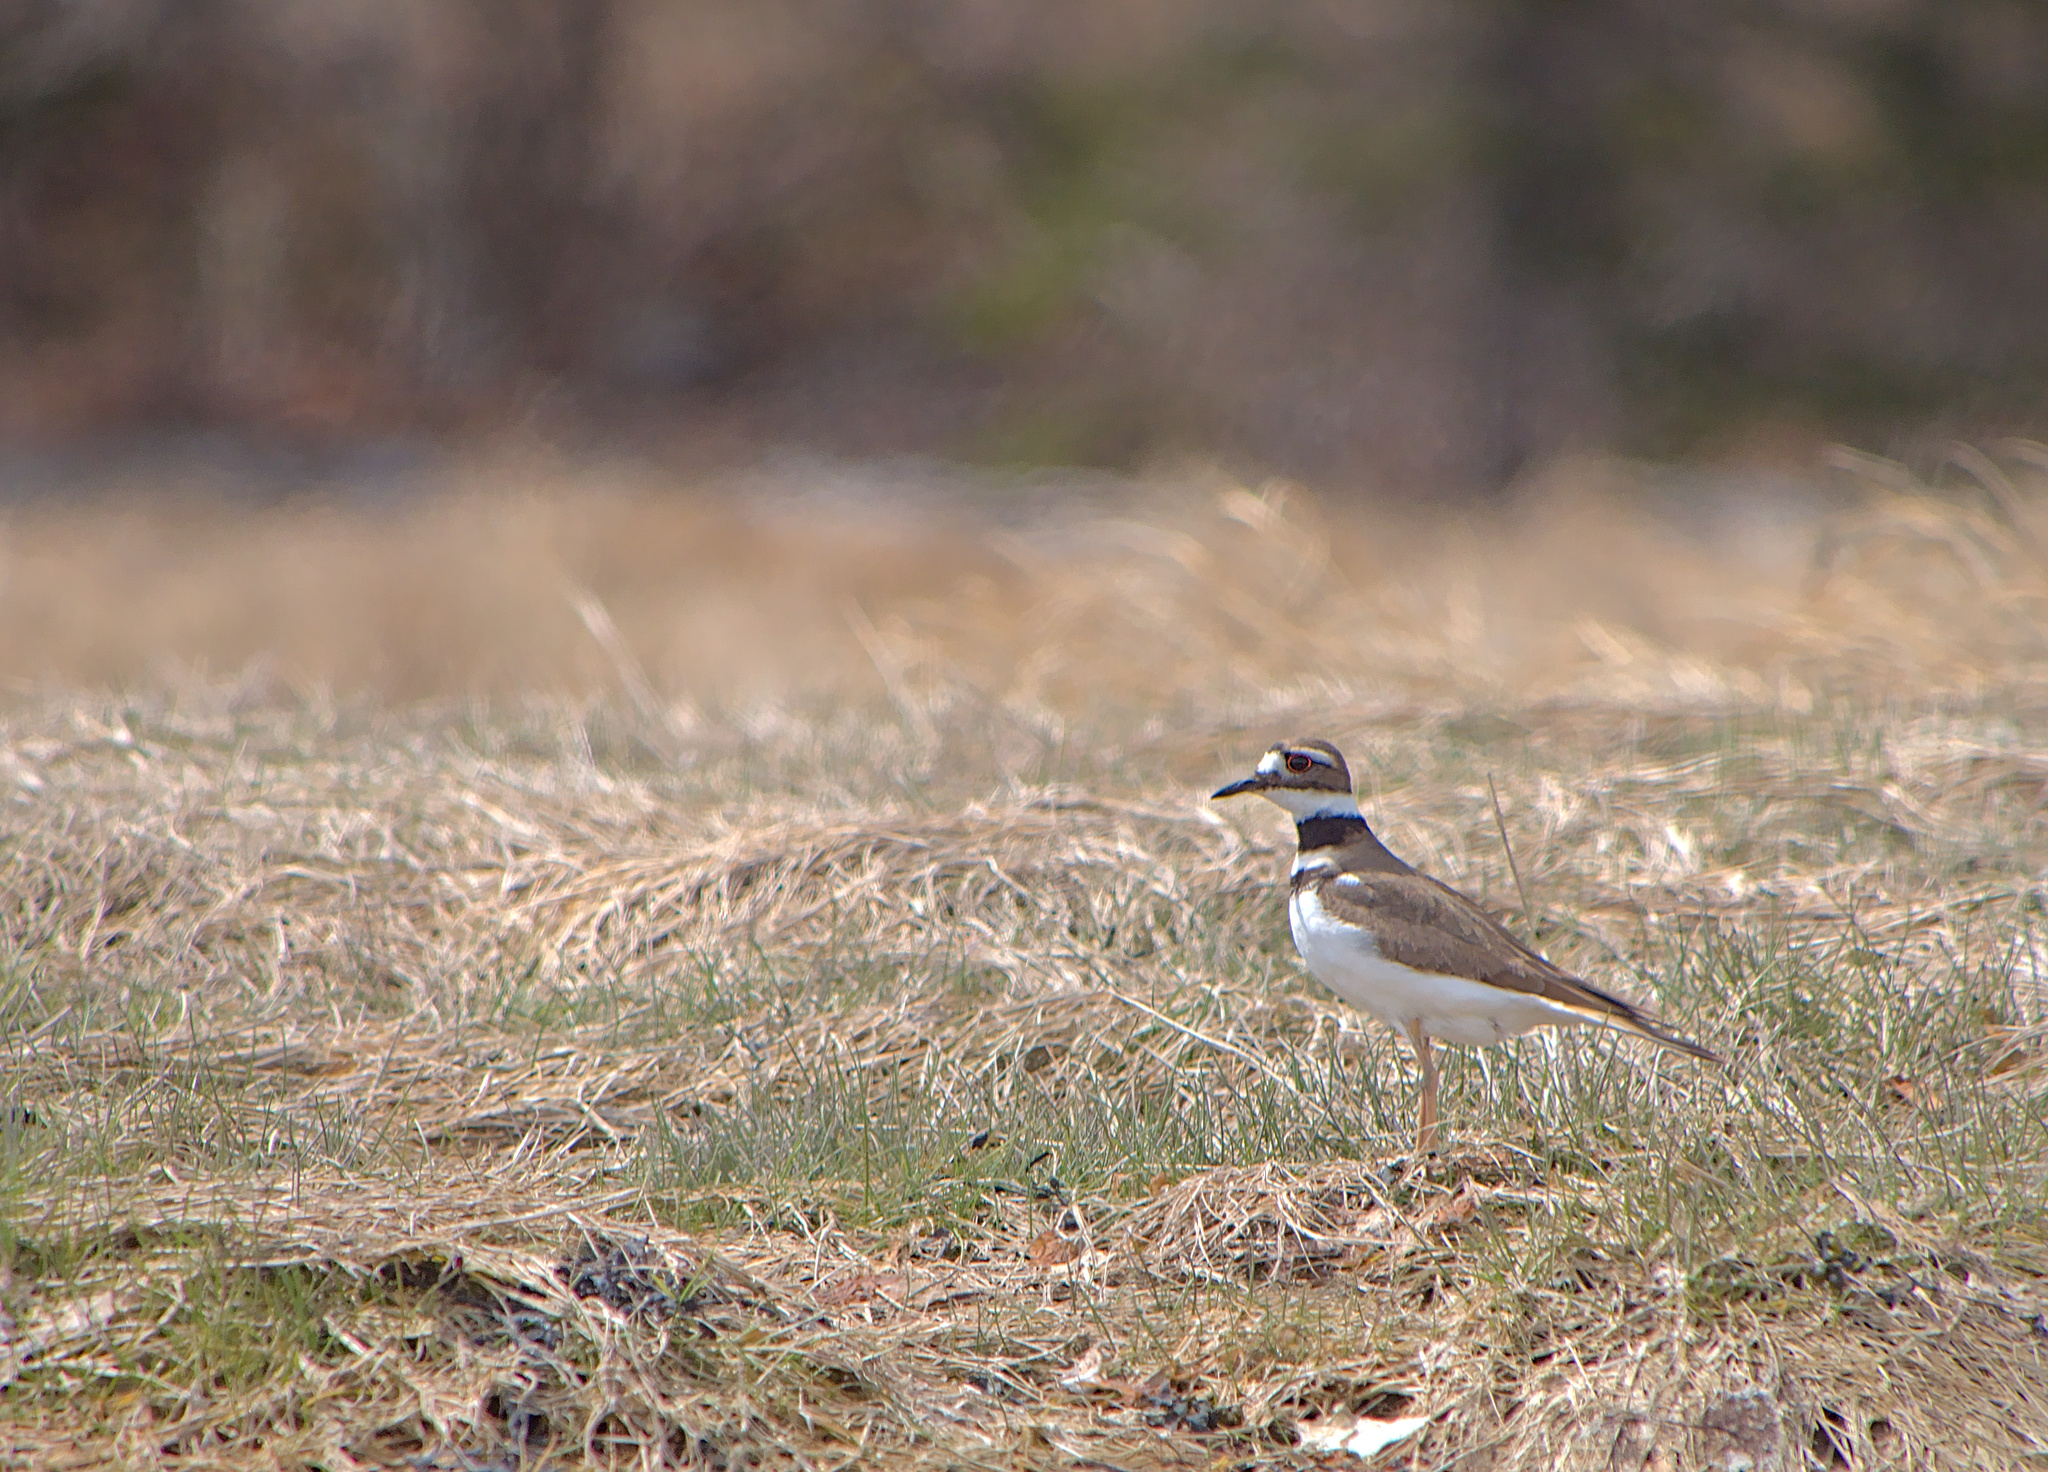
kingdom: Animalia
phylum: Chordata
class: Aves
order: Charadriiformes
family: Charadriidae
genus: Charadrius
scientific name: Charadrius vociferus
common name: Killdeer
